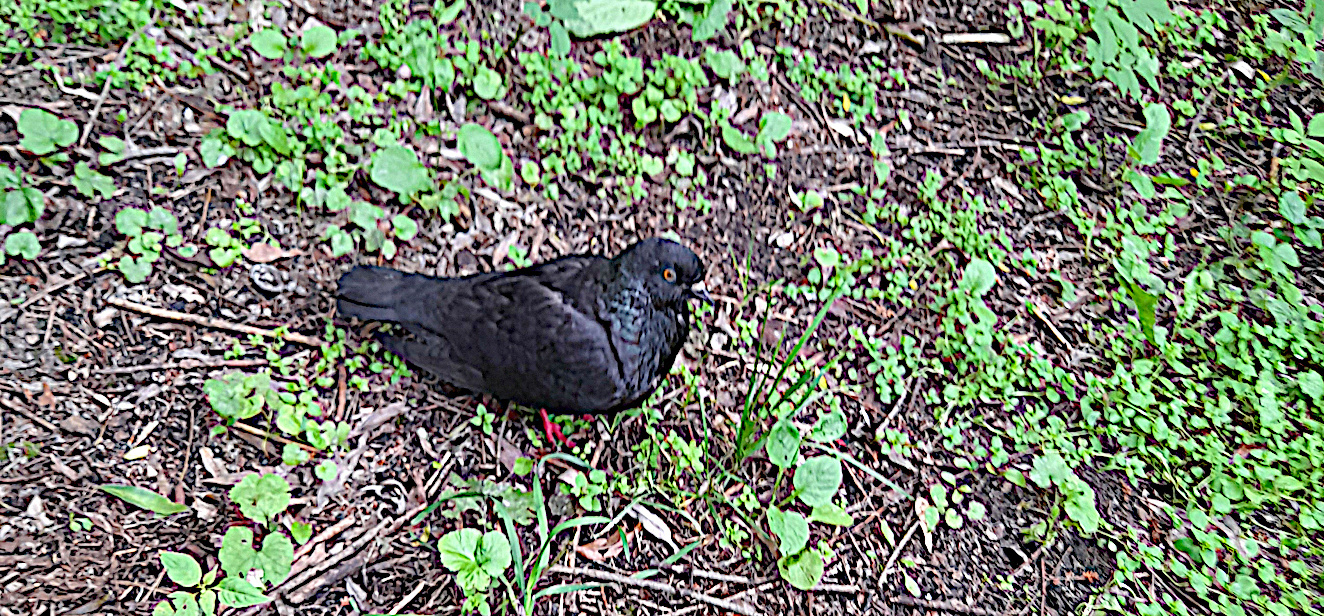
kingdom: Animalia
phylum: Chordata
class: Aves
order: Columbiformes
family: Columbidae
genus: Columba
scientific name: Columba livia
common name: Rock pigeon
